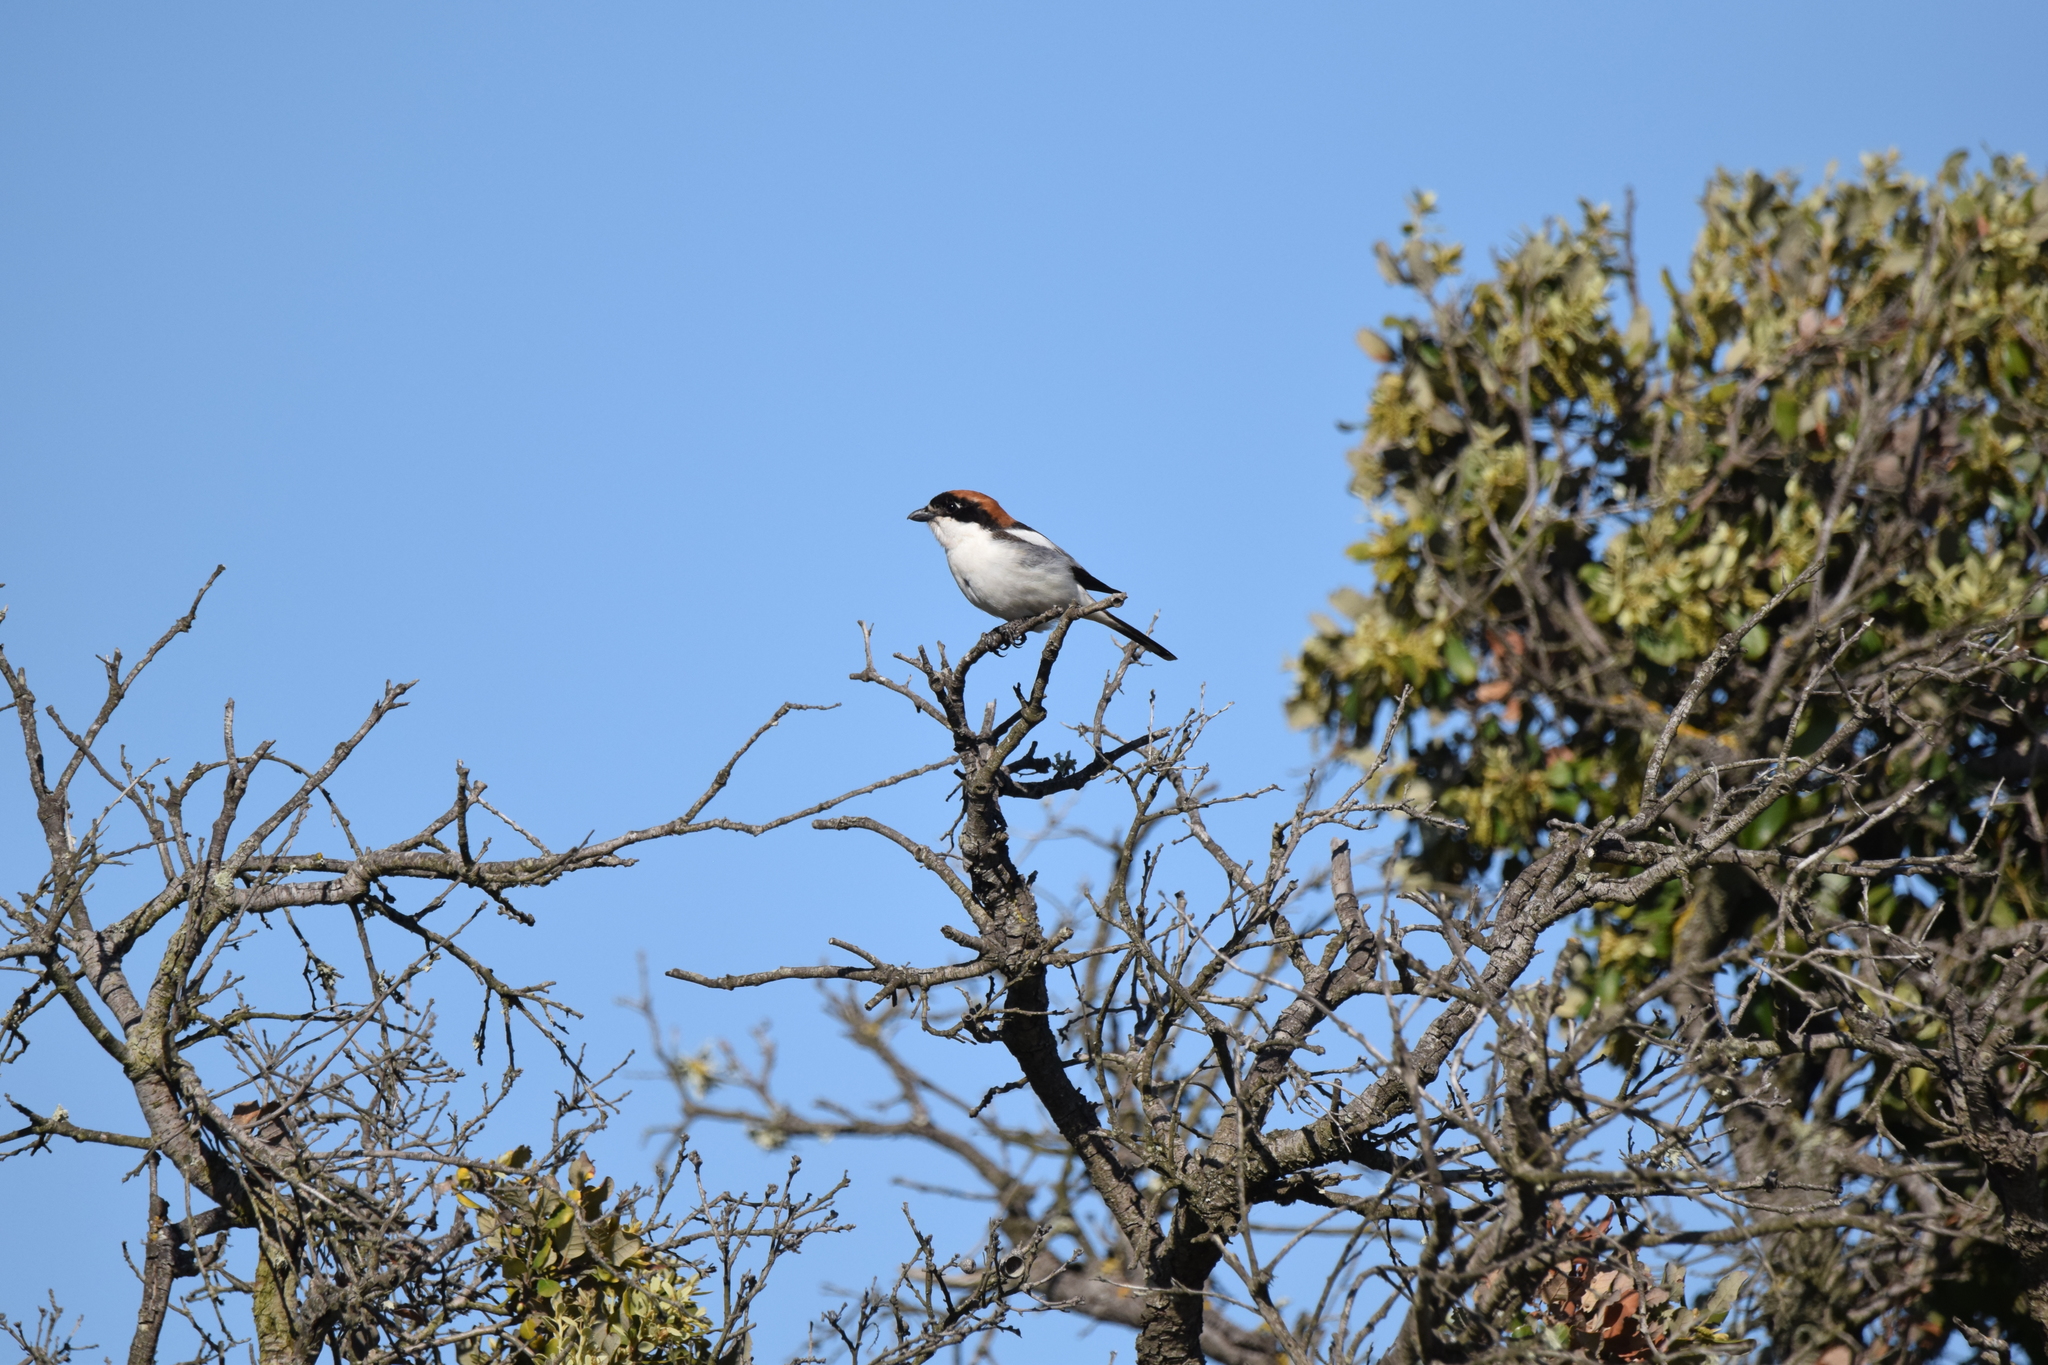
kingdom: Animalia
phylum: Chordata
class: Aves
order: Passeriformes
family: Laniidae
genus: Lanius
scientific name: Lanius senator
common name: Woodchat shrike
